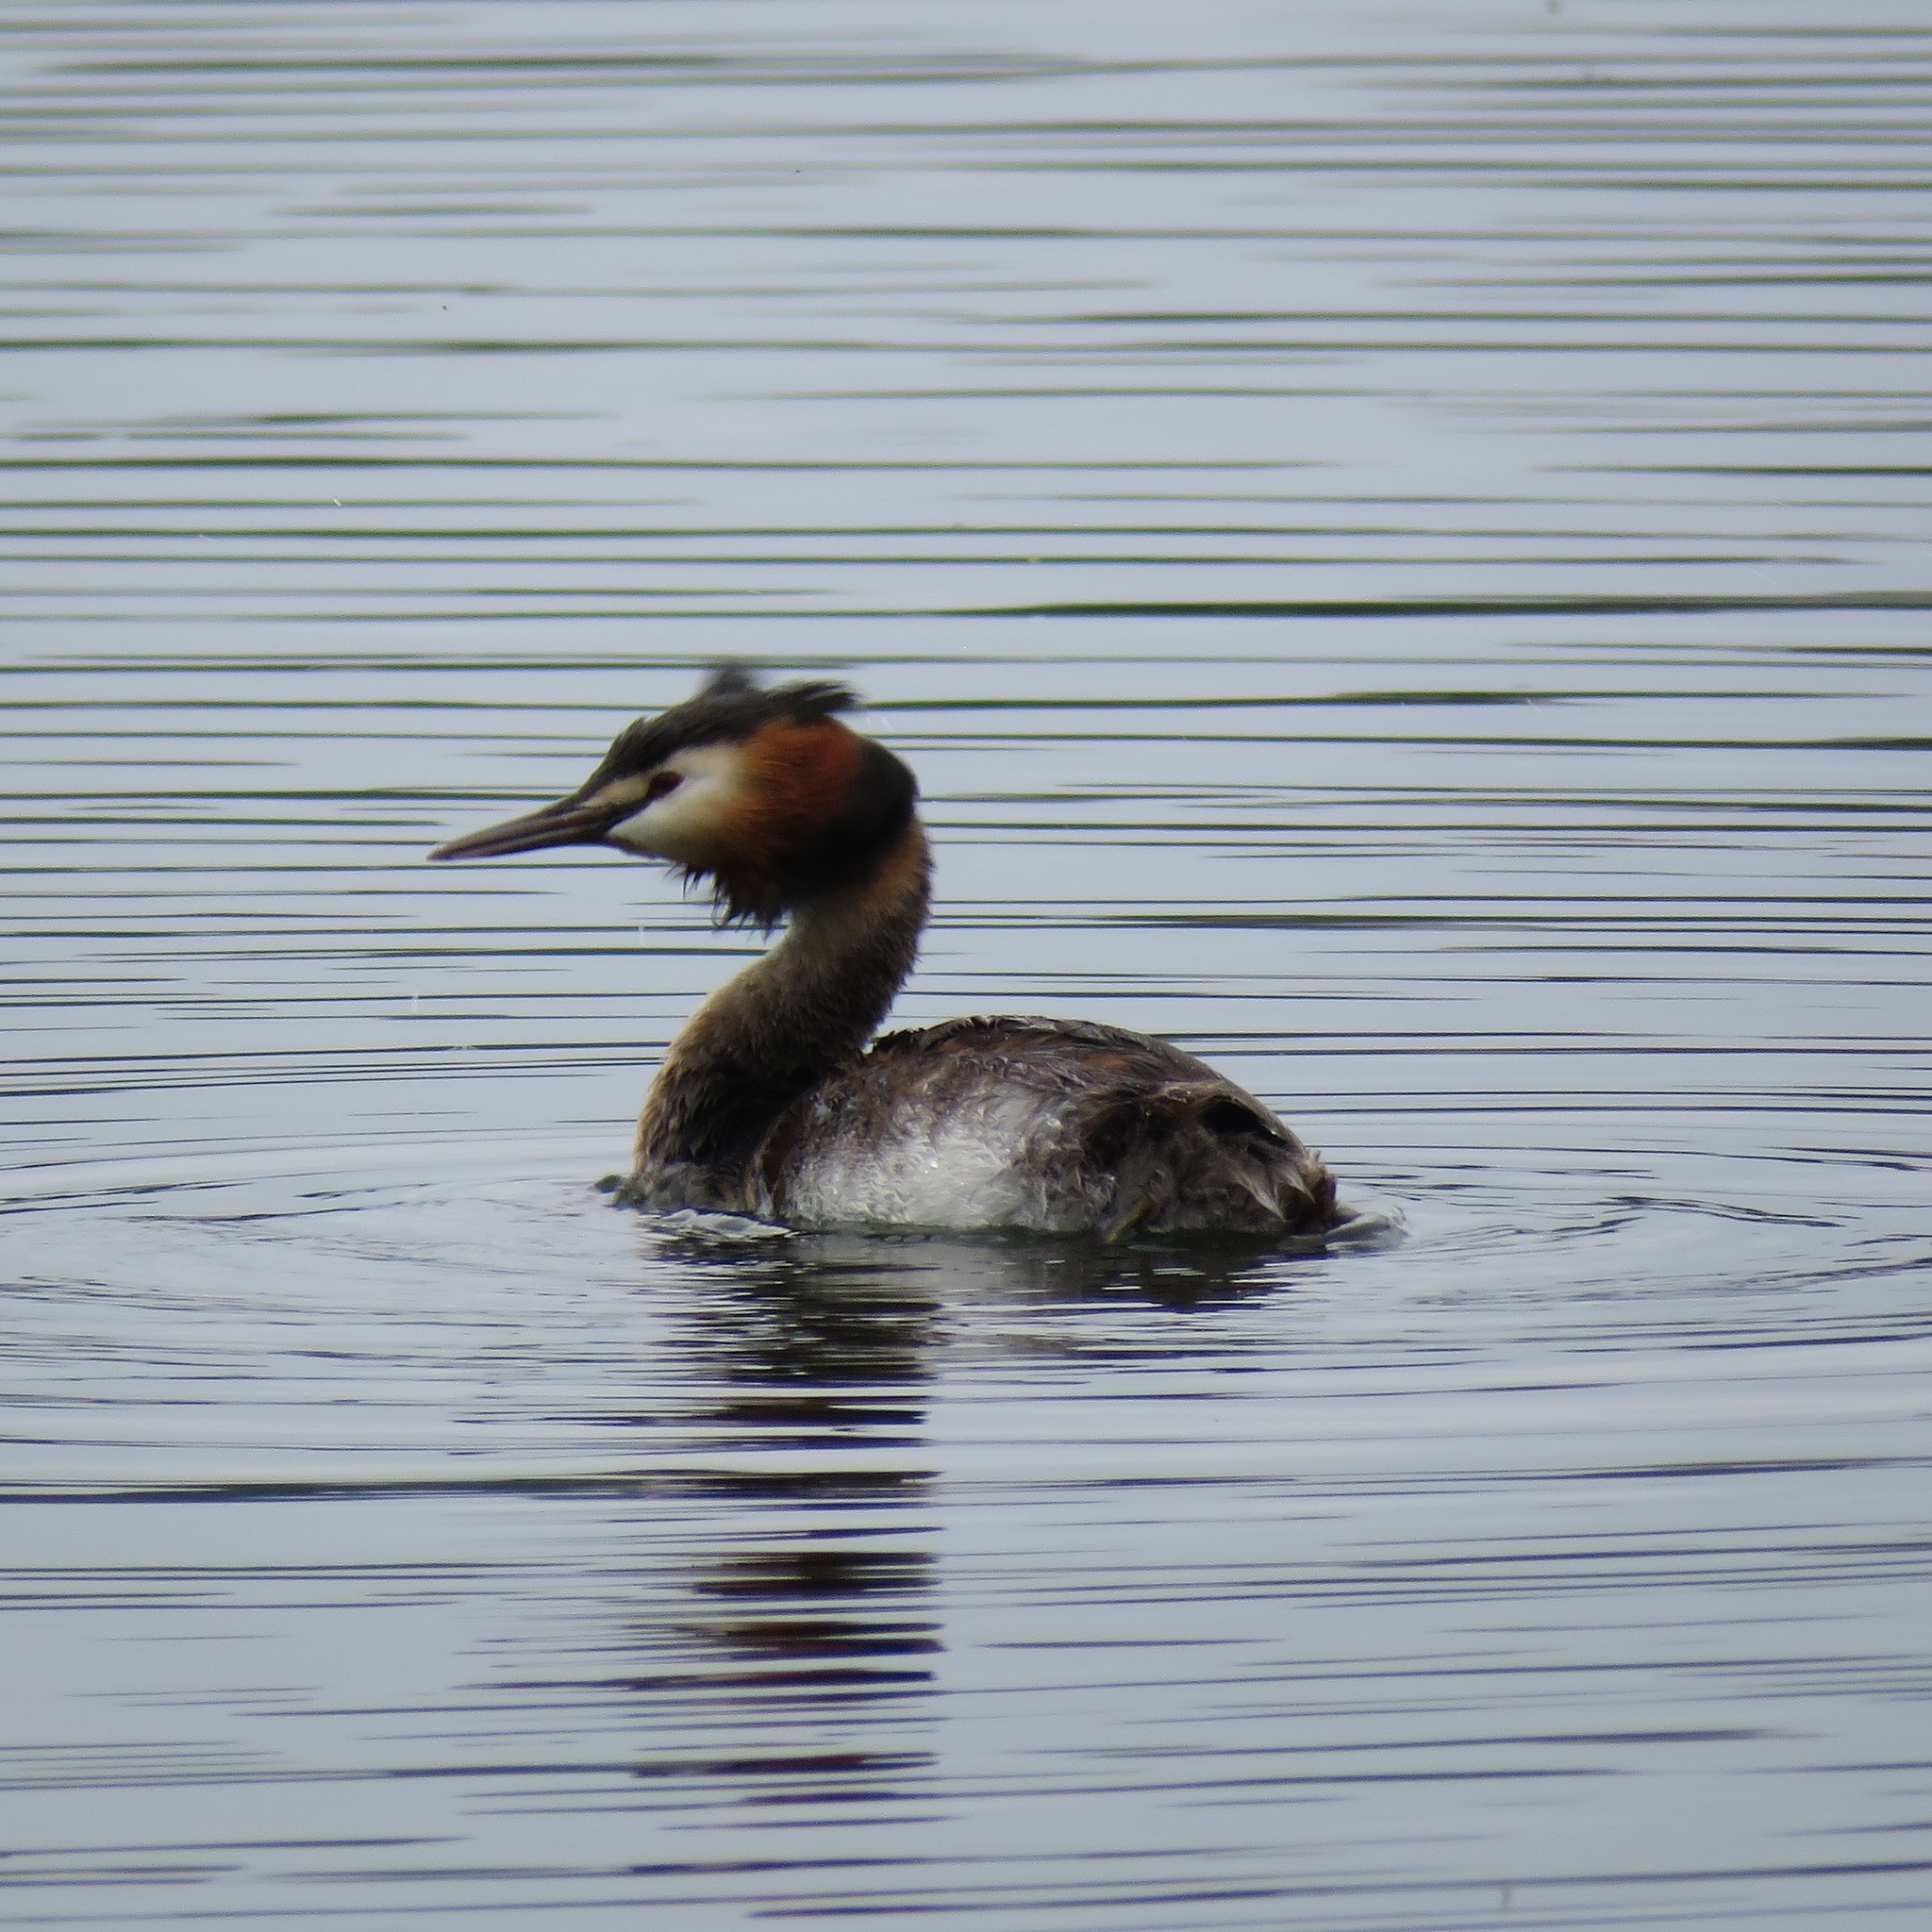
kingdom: Animalia
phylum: Chordata
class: Aves
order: Podicipediformes
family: Podicipedidae
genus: Podiceps
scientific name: Podiceps cristatus
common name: Great crested grebe
